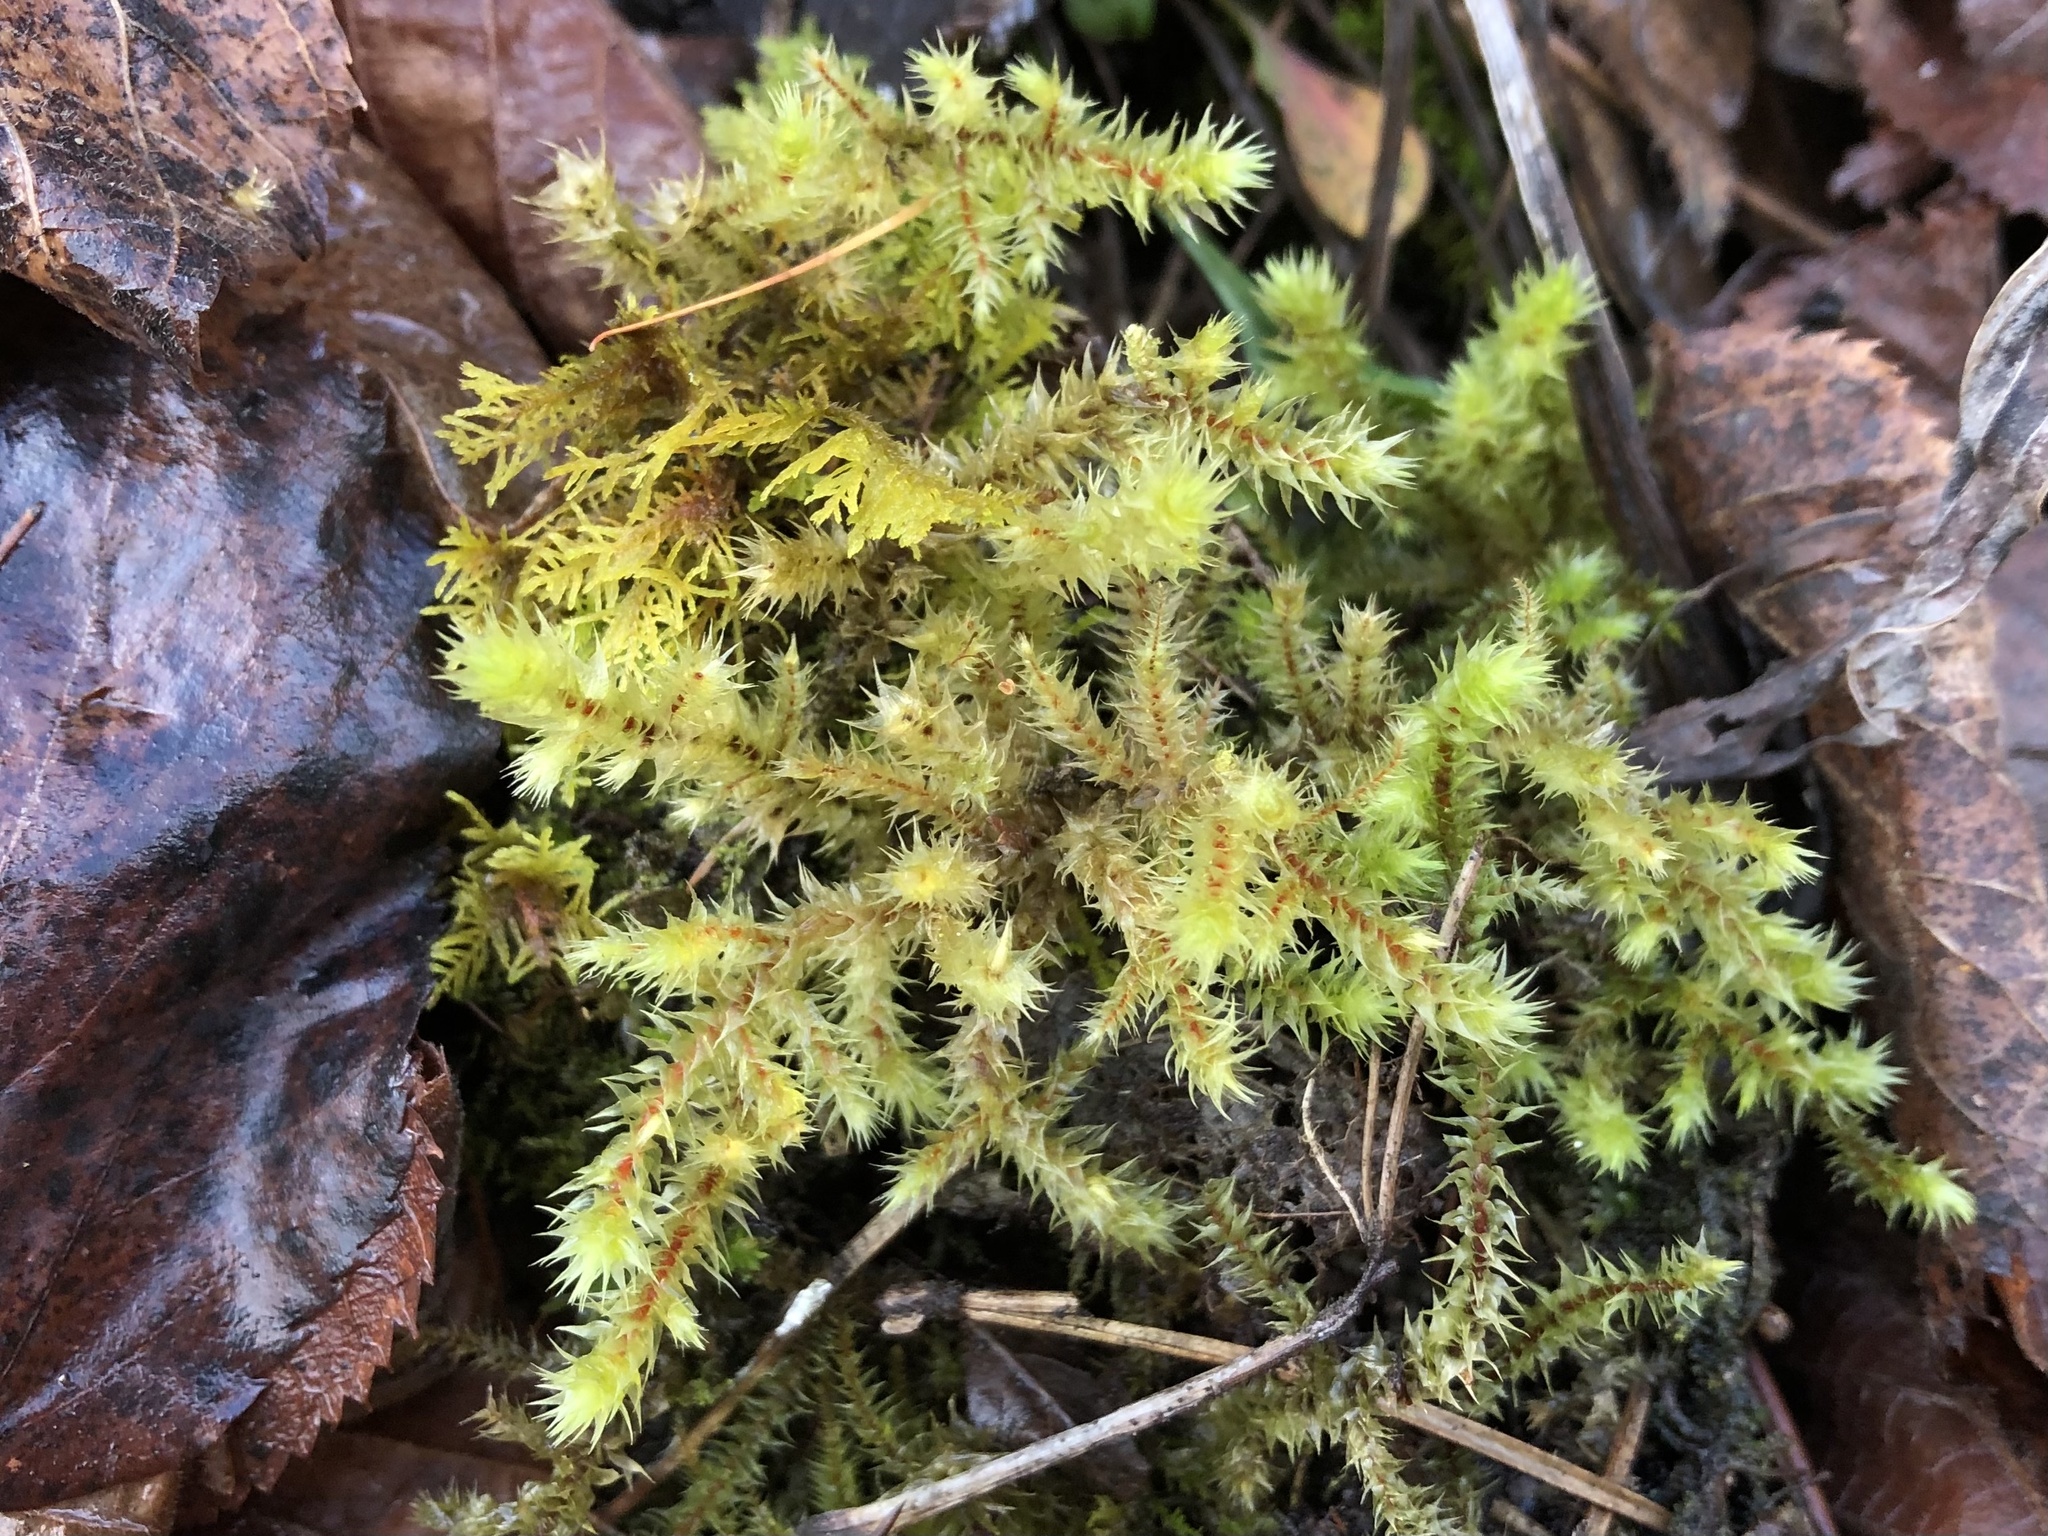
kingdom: Plantae
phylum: Bryophyta
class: Bryopsida
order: Hypnales
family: Hylocomiaceae
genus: Hylocomiadelphus
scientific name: Hylocomiadelphus triquetrus
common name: Rough goose neck moss
